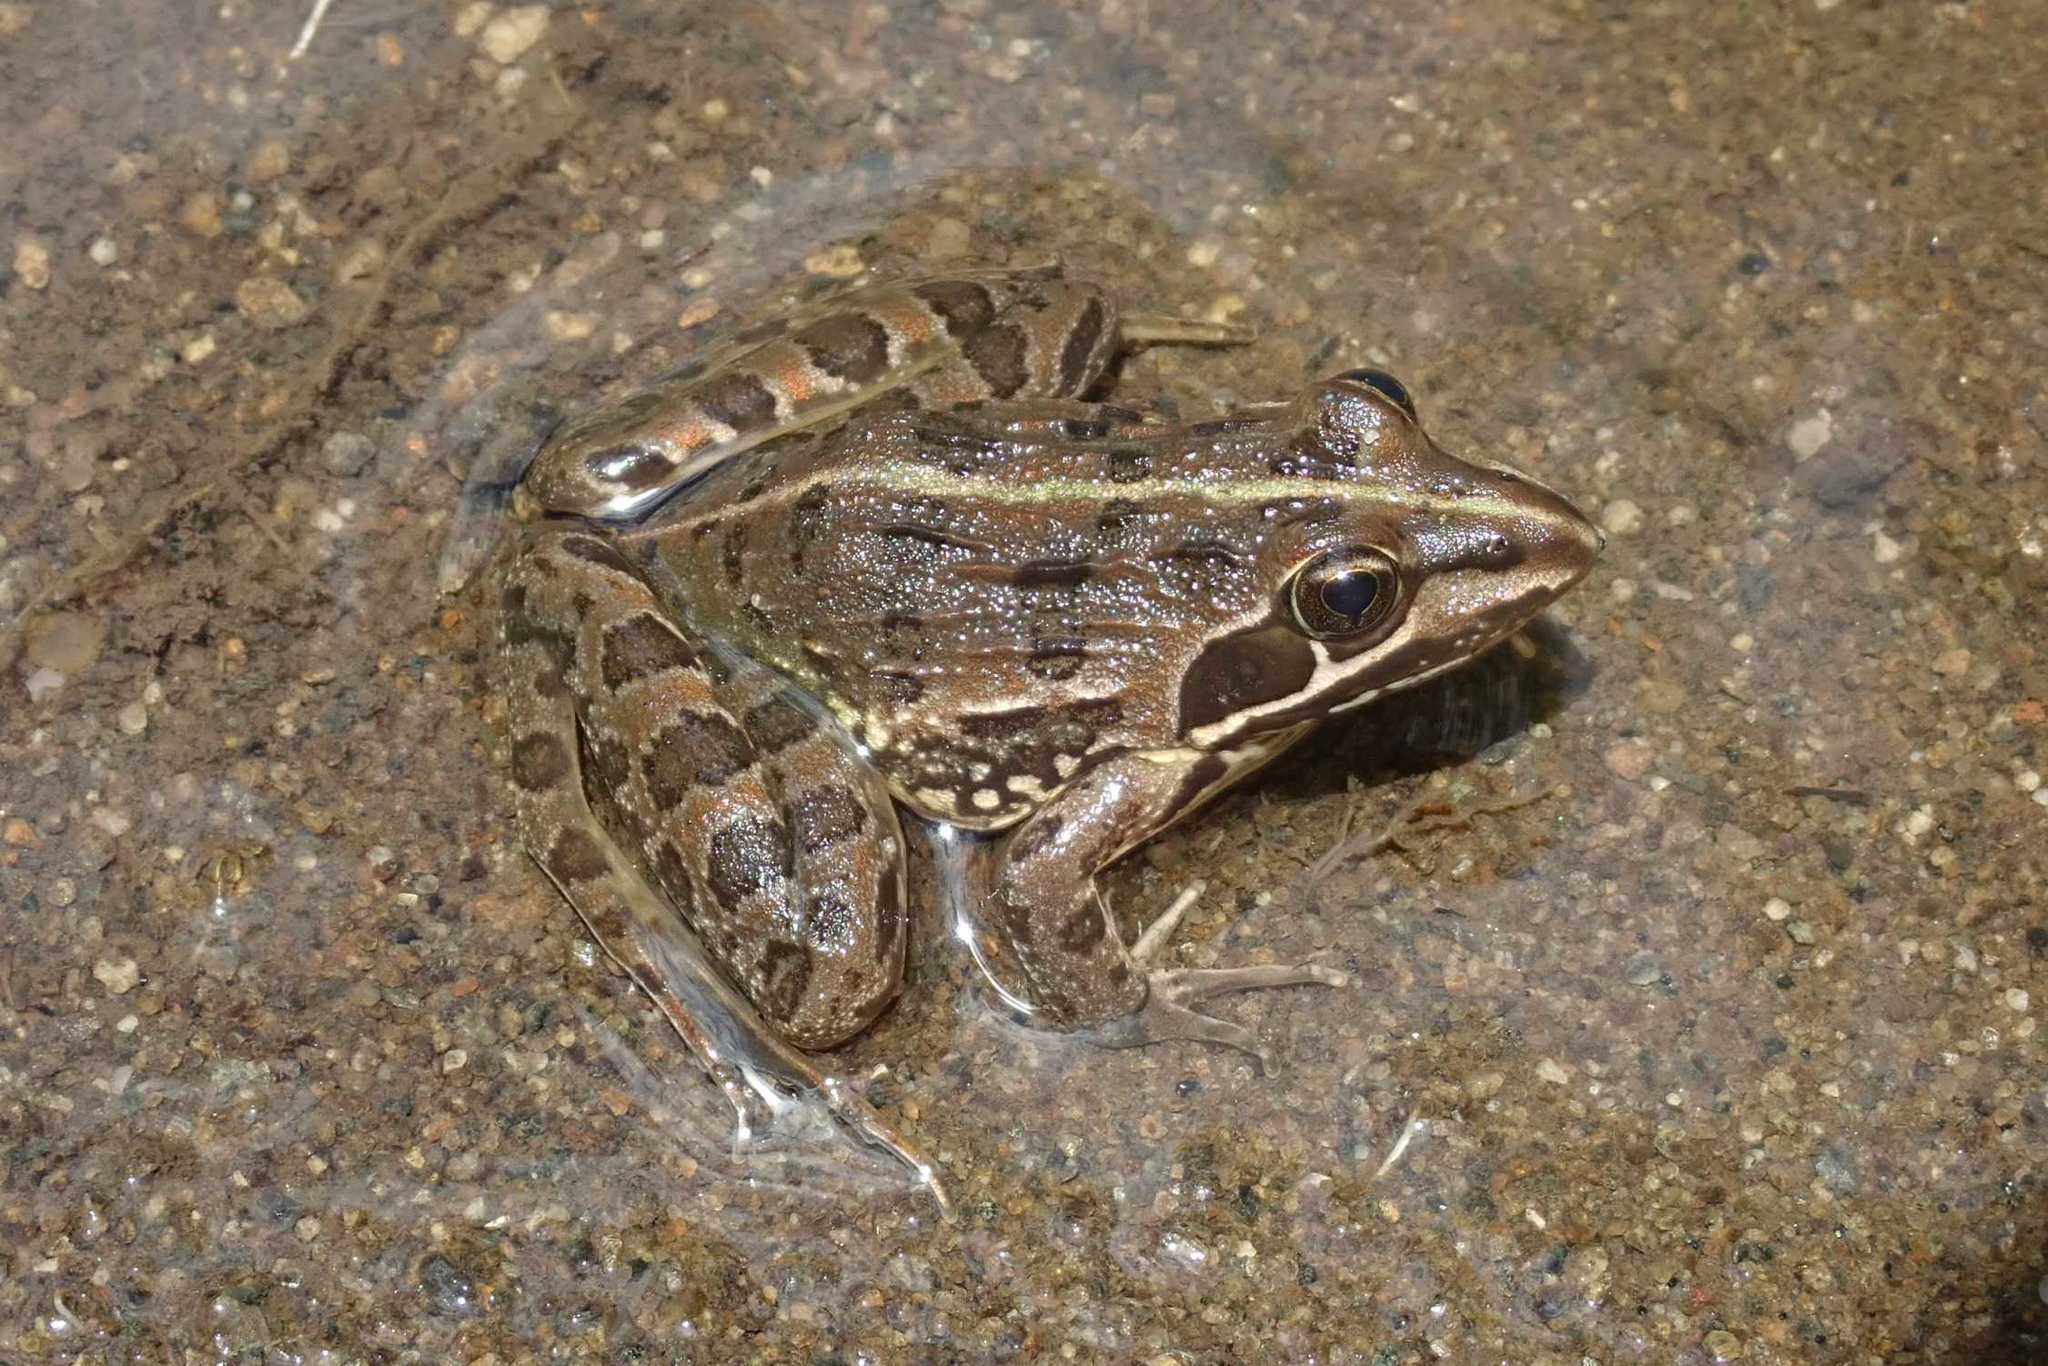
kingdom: Animalia
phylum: Chordata
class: Amphibia
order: Anura
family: Pyxicephalidae
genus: Amietia
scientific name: Amietia delalandii
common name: Delalande's river frog
